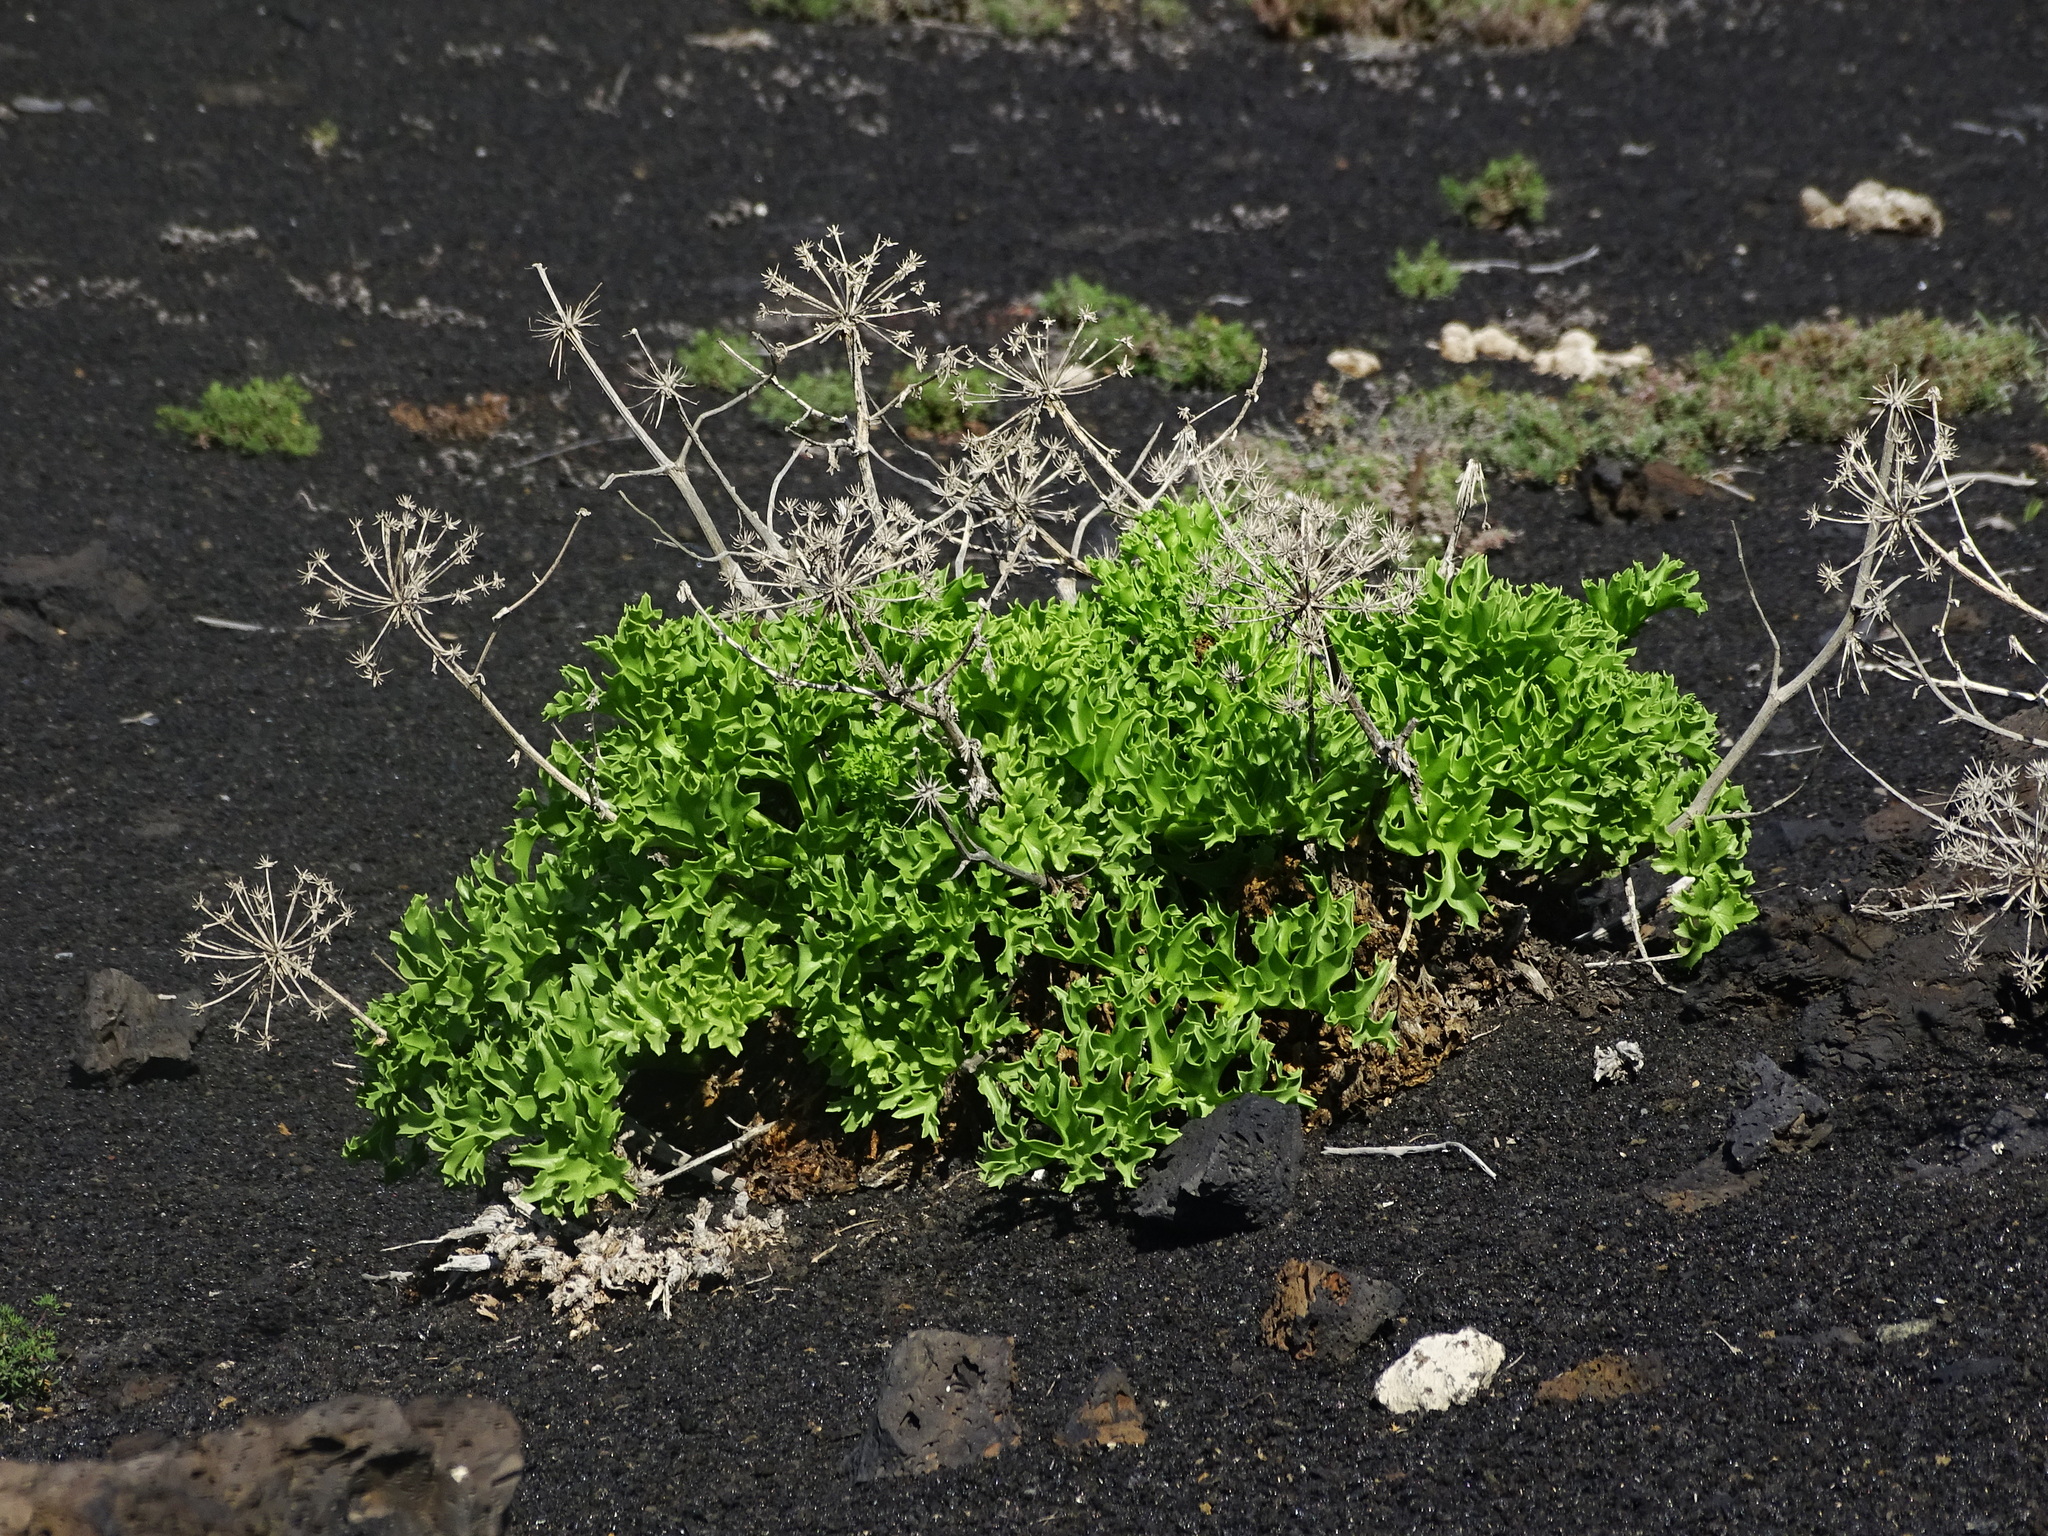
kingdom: Plantae
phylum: Tracheophyta
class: Magnoliopsida
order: Apiales
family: Apiaceae
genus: Astydamia
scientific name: Astydamia latifolia
